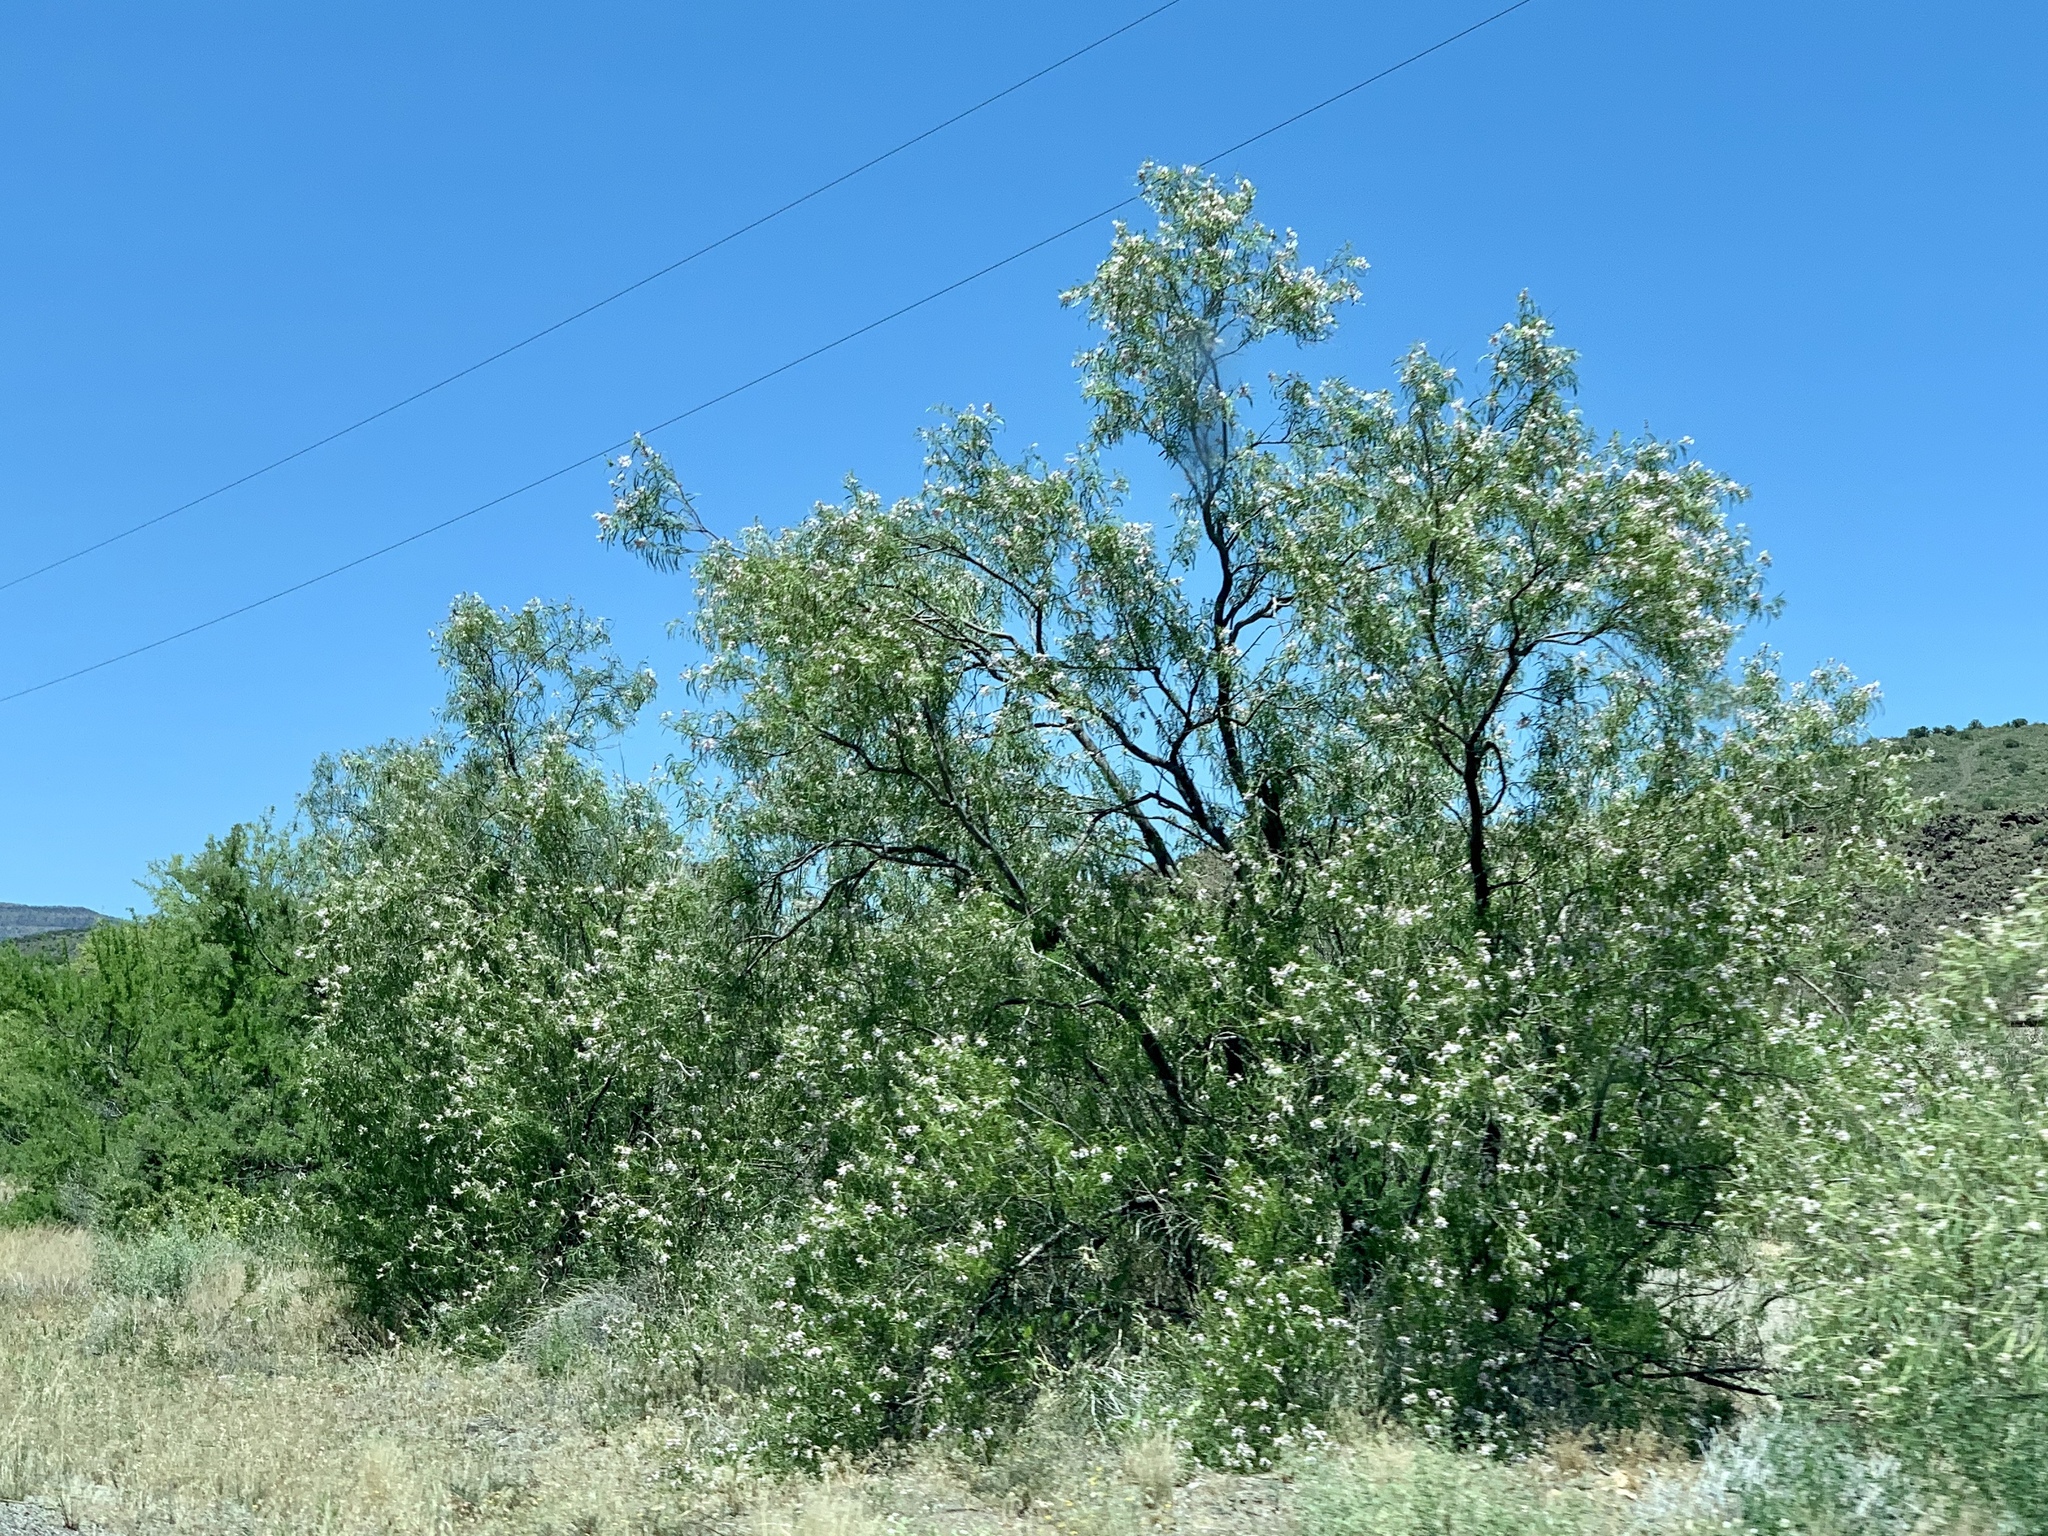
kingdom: Plantae
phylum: Tracheophyta
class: Magnoliopsida
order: Lamiales
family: Bignoniaceae
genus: Chilopsis
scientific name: Chilopsis linearis
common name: Desert-willow
